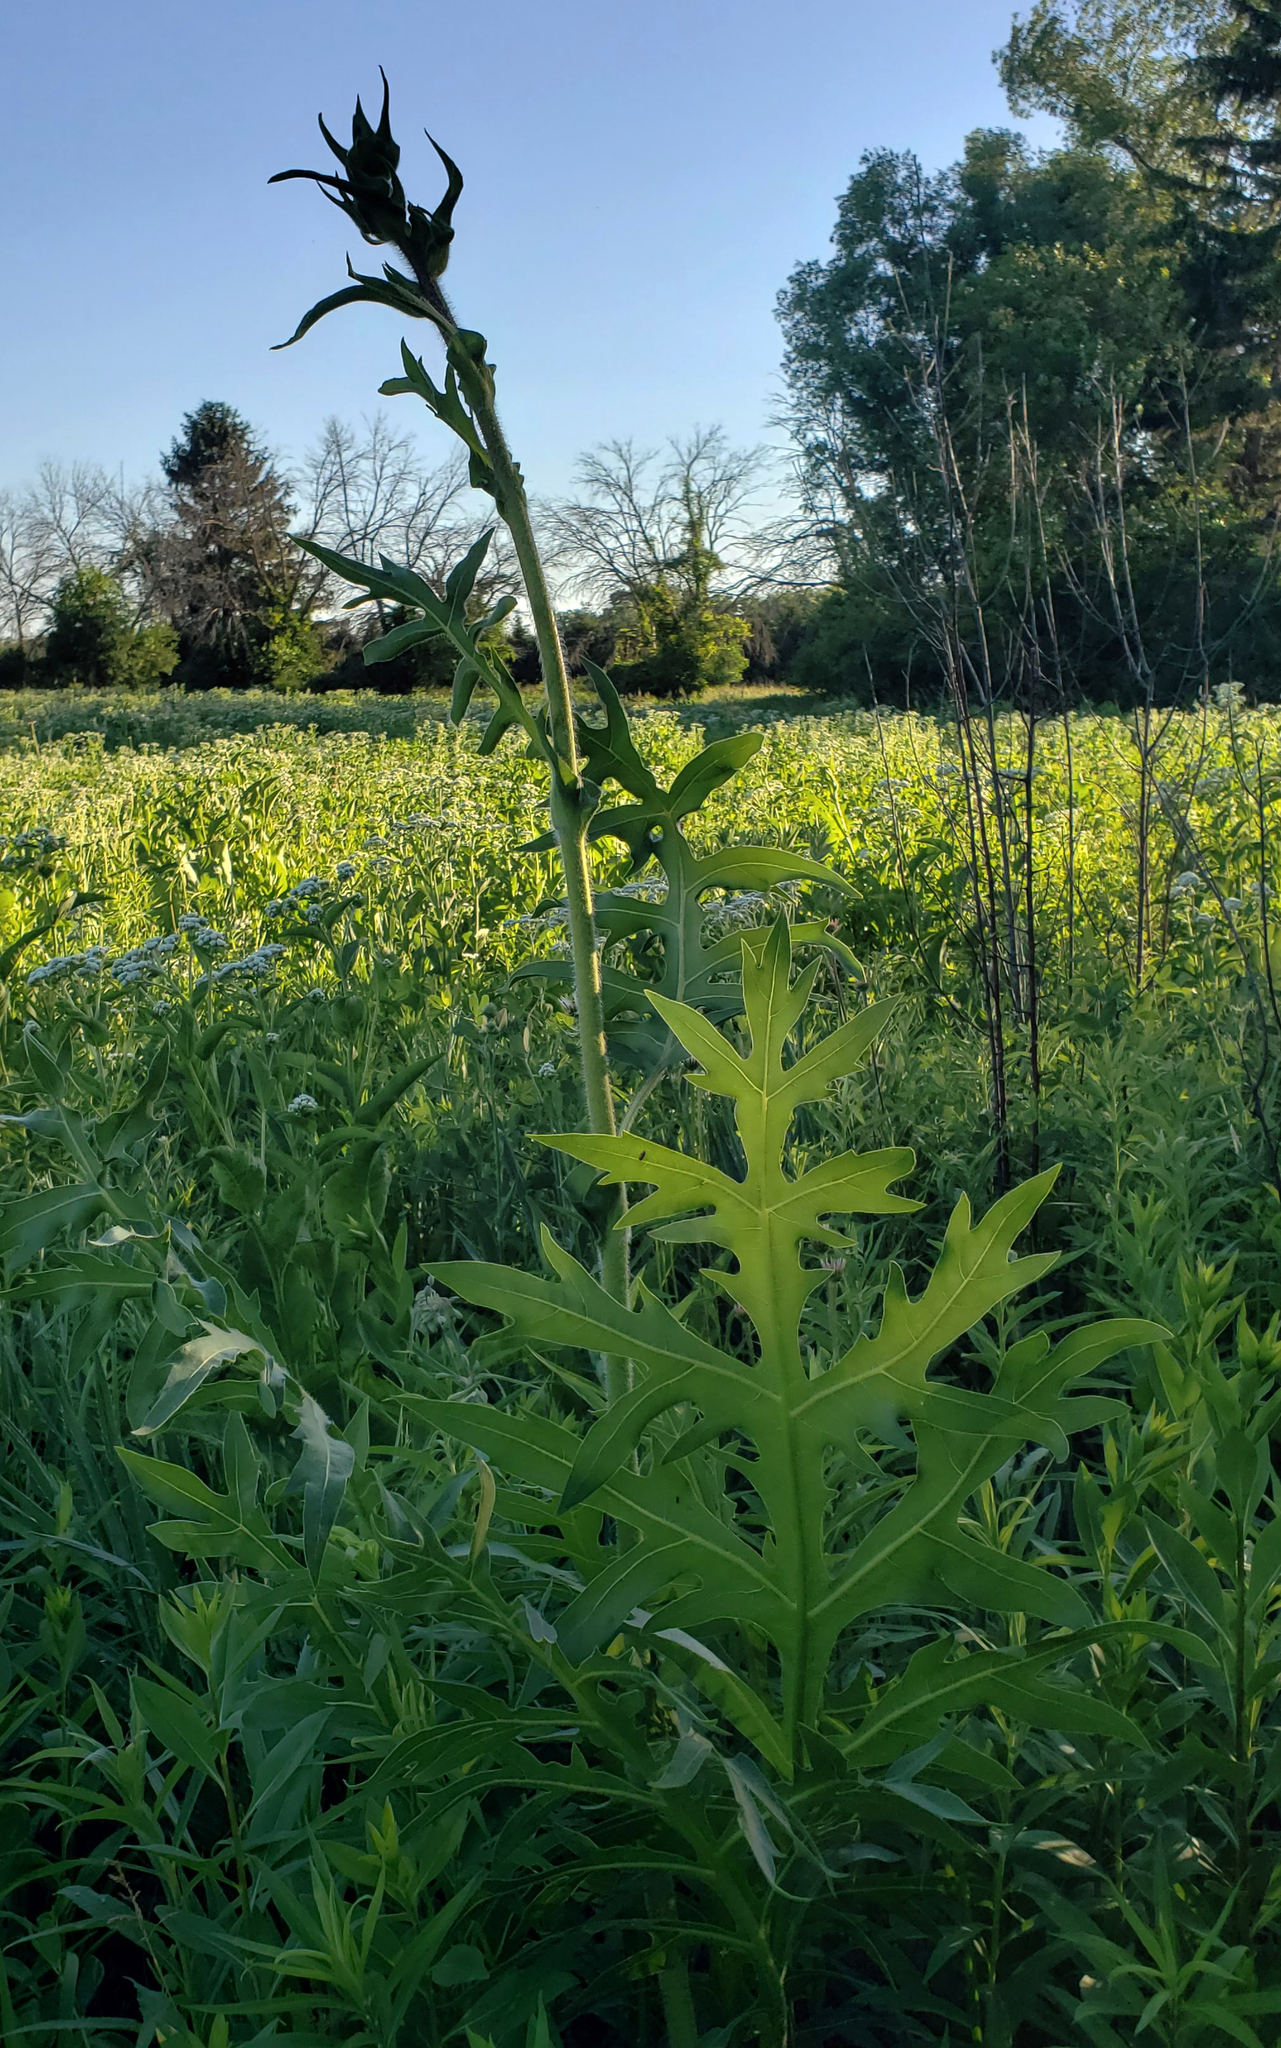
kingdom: Plantae
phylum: Tracheophyta
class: Magnoliopsida
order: Asterales
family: Asteraceae
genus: Silphium
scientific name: Silphium laciniatum
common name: Polarplant
